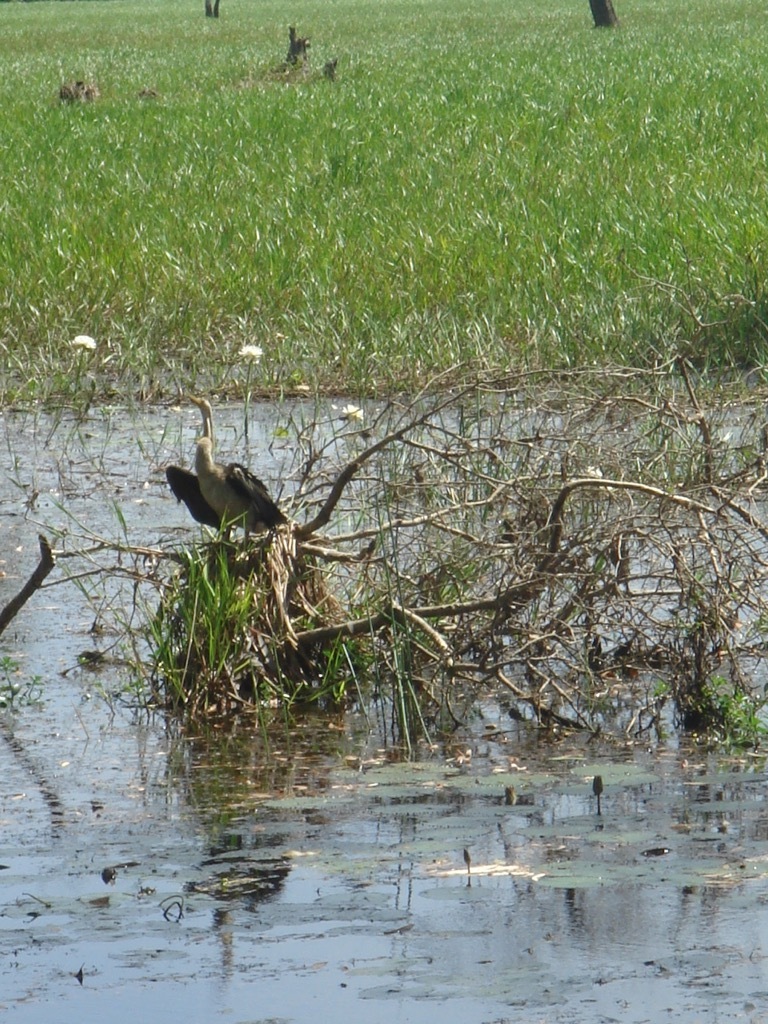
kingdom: Animalia
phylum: Chordata
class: Aves
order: Suliformes
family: Anhingidae
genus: Anhinga
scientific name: Anhinga novaehollandiae
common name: Australasian darter
